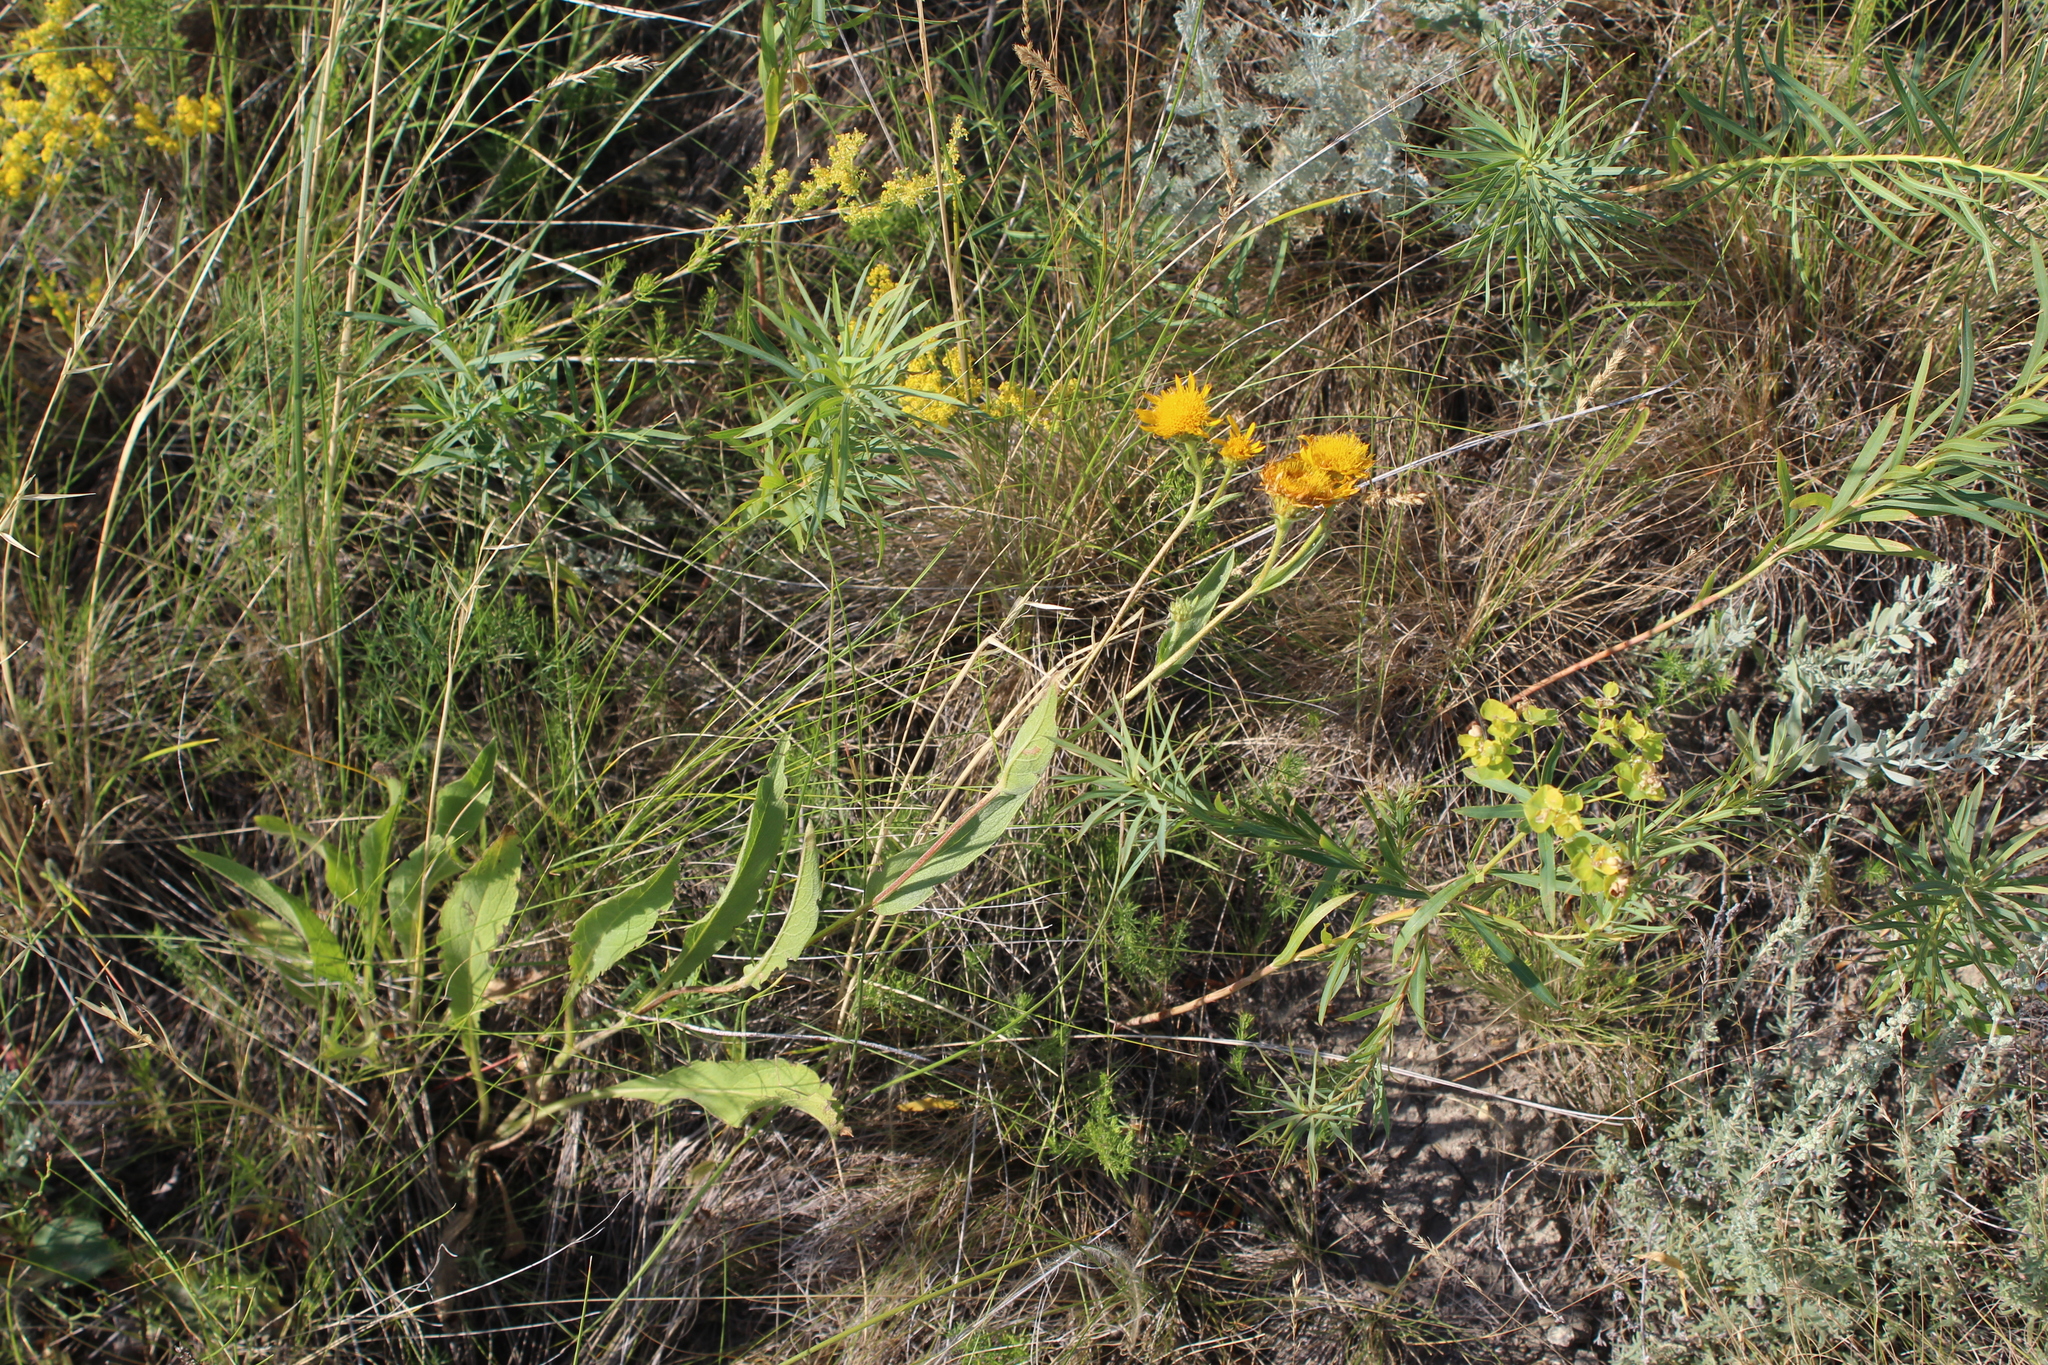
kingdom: Plantae
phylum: Tracheophyta
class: Magnoliopsida
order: Asterales
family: Asteraceae
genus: Pentanema
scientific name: Pentanema oculus-christi
